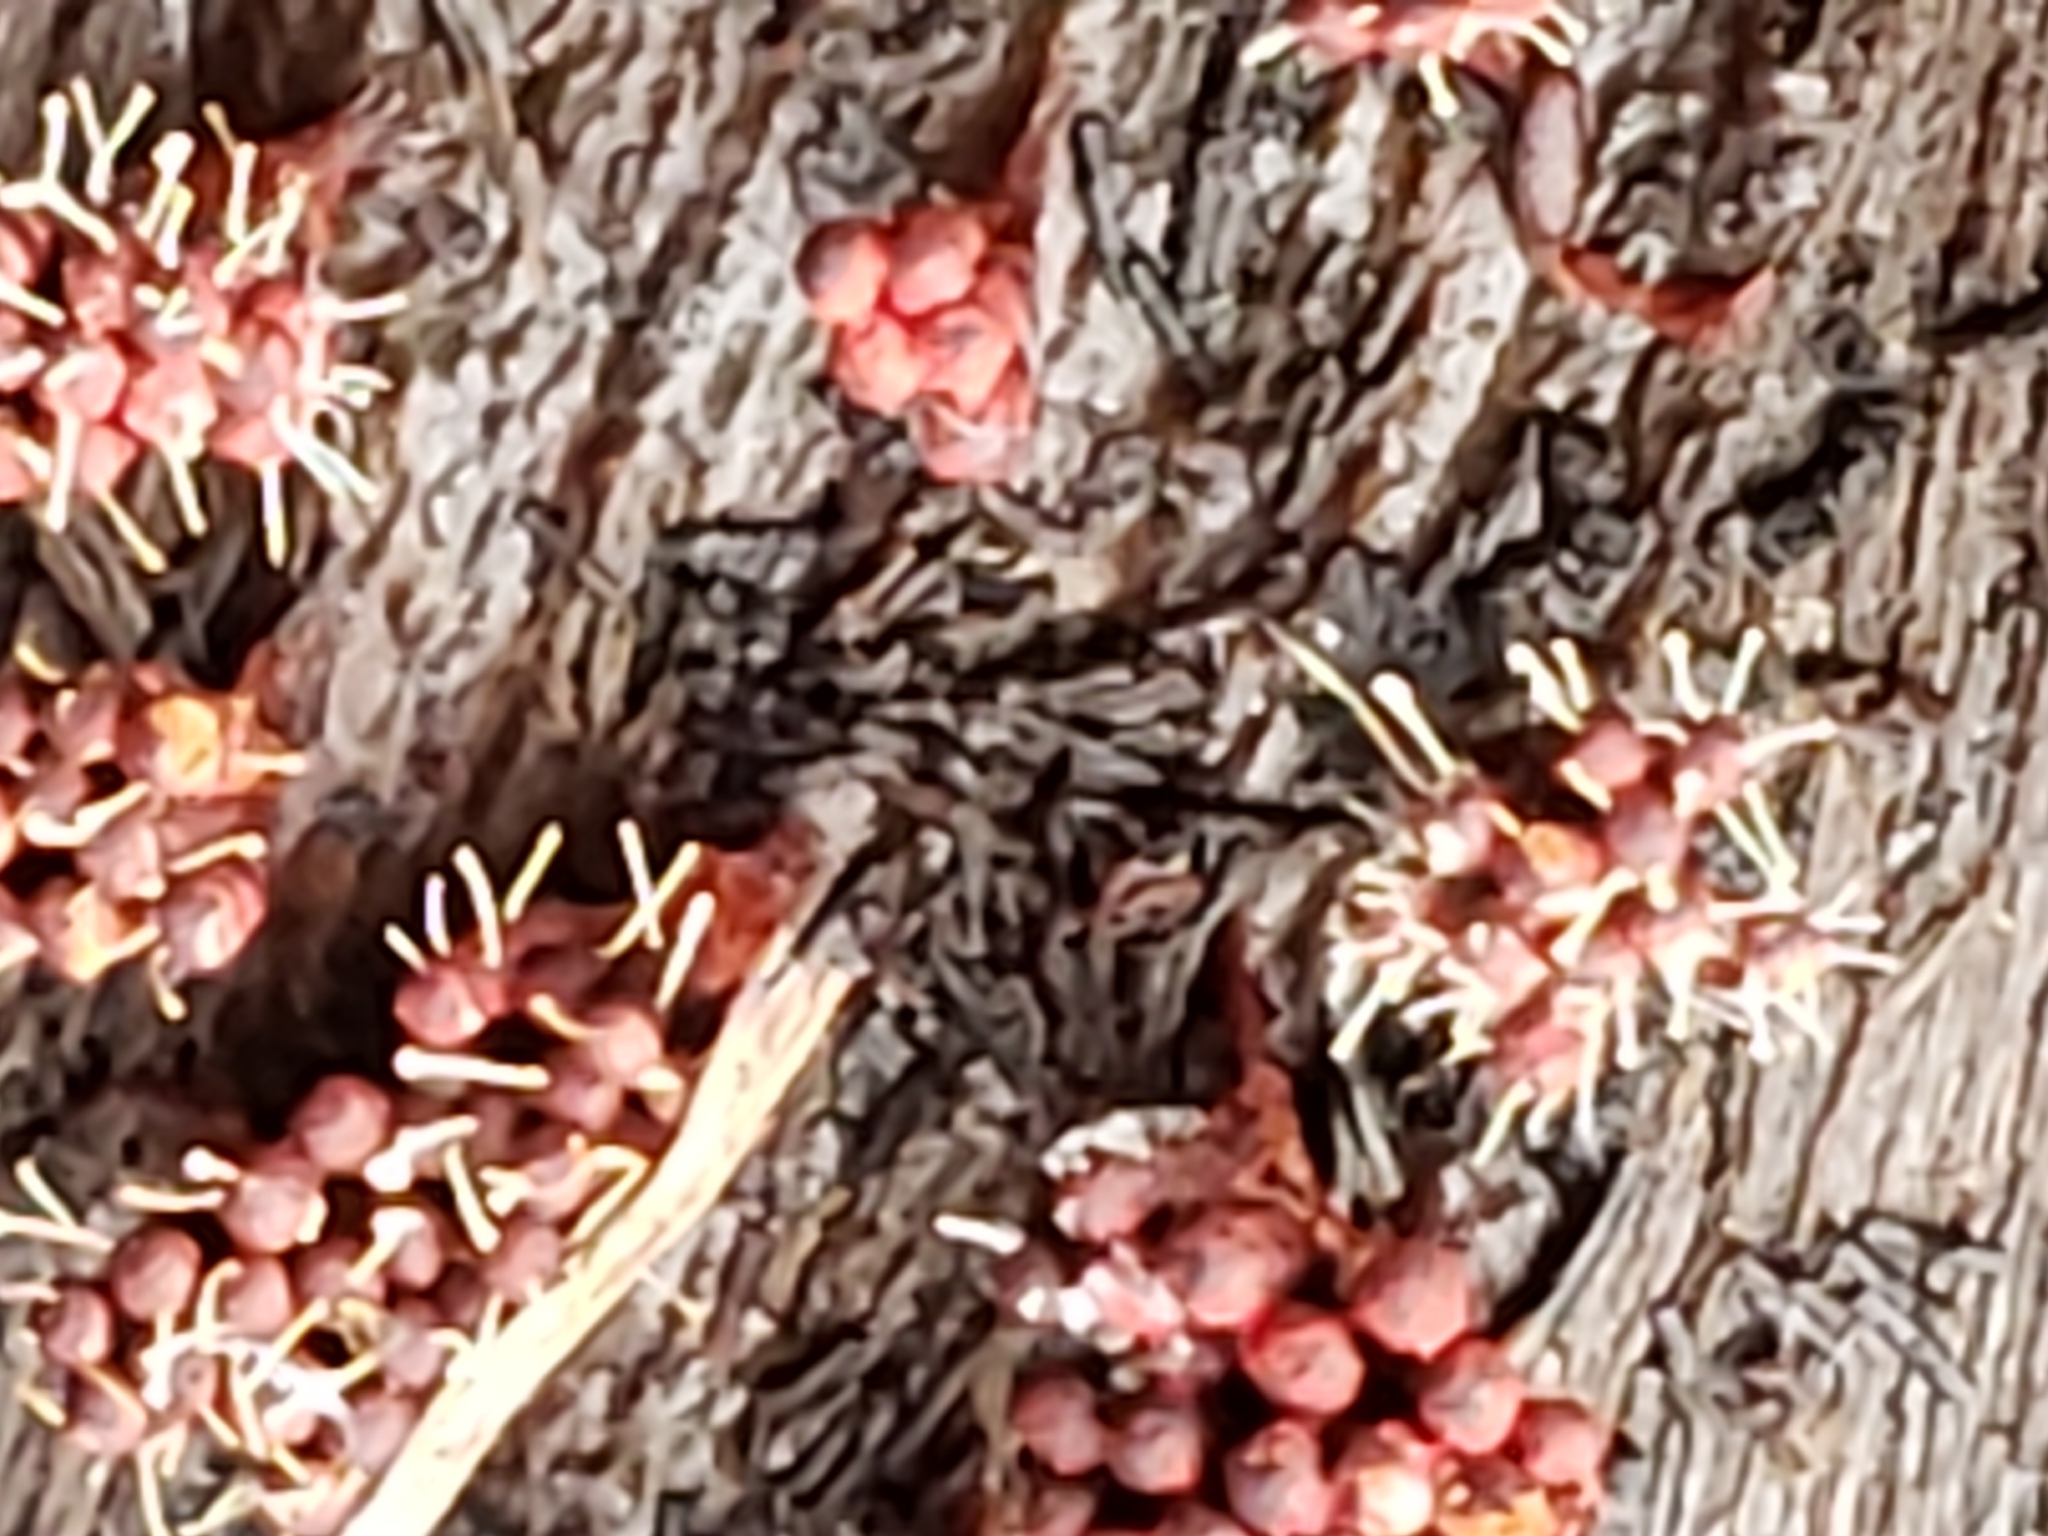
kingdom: Fungi
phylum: Ascomycota
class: Sordariomycetes
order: Hypocreales
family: Ophiocordycipitaceae
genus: Polycephalomyces
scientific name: Polycephalomyces tomentosus
